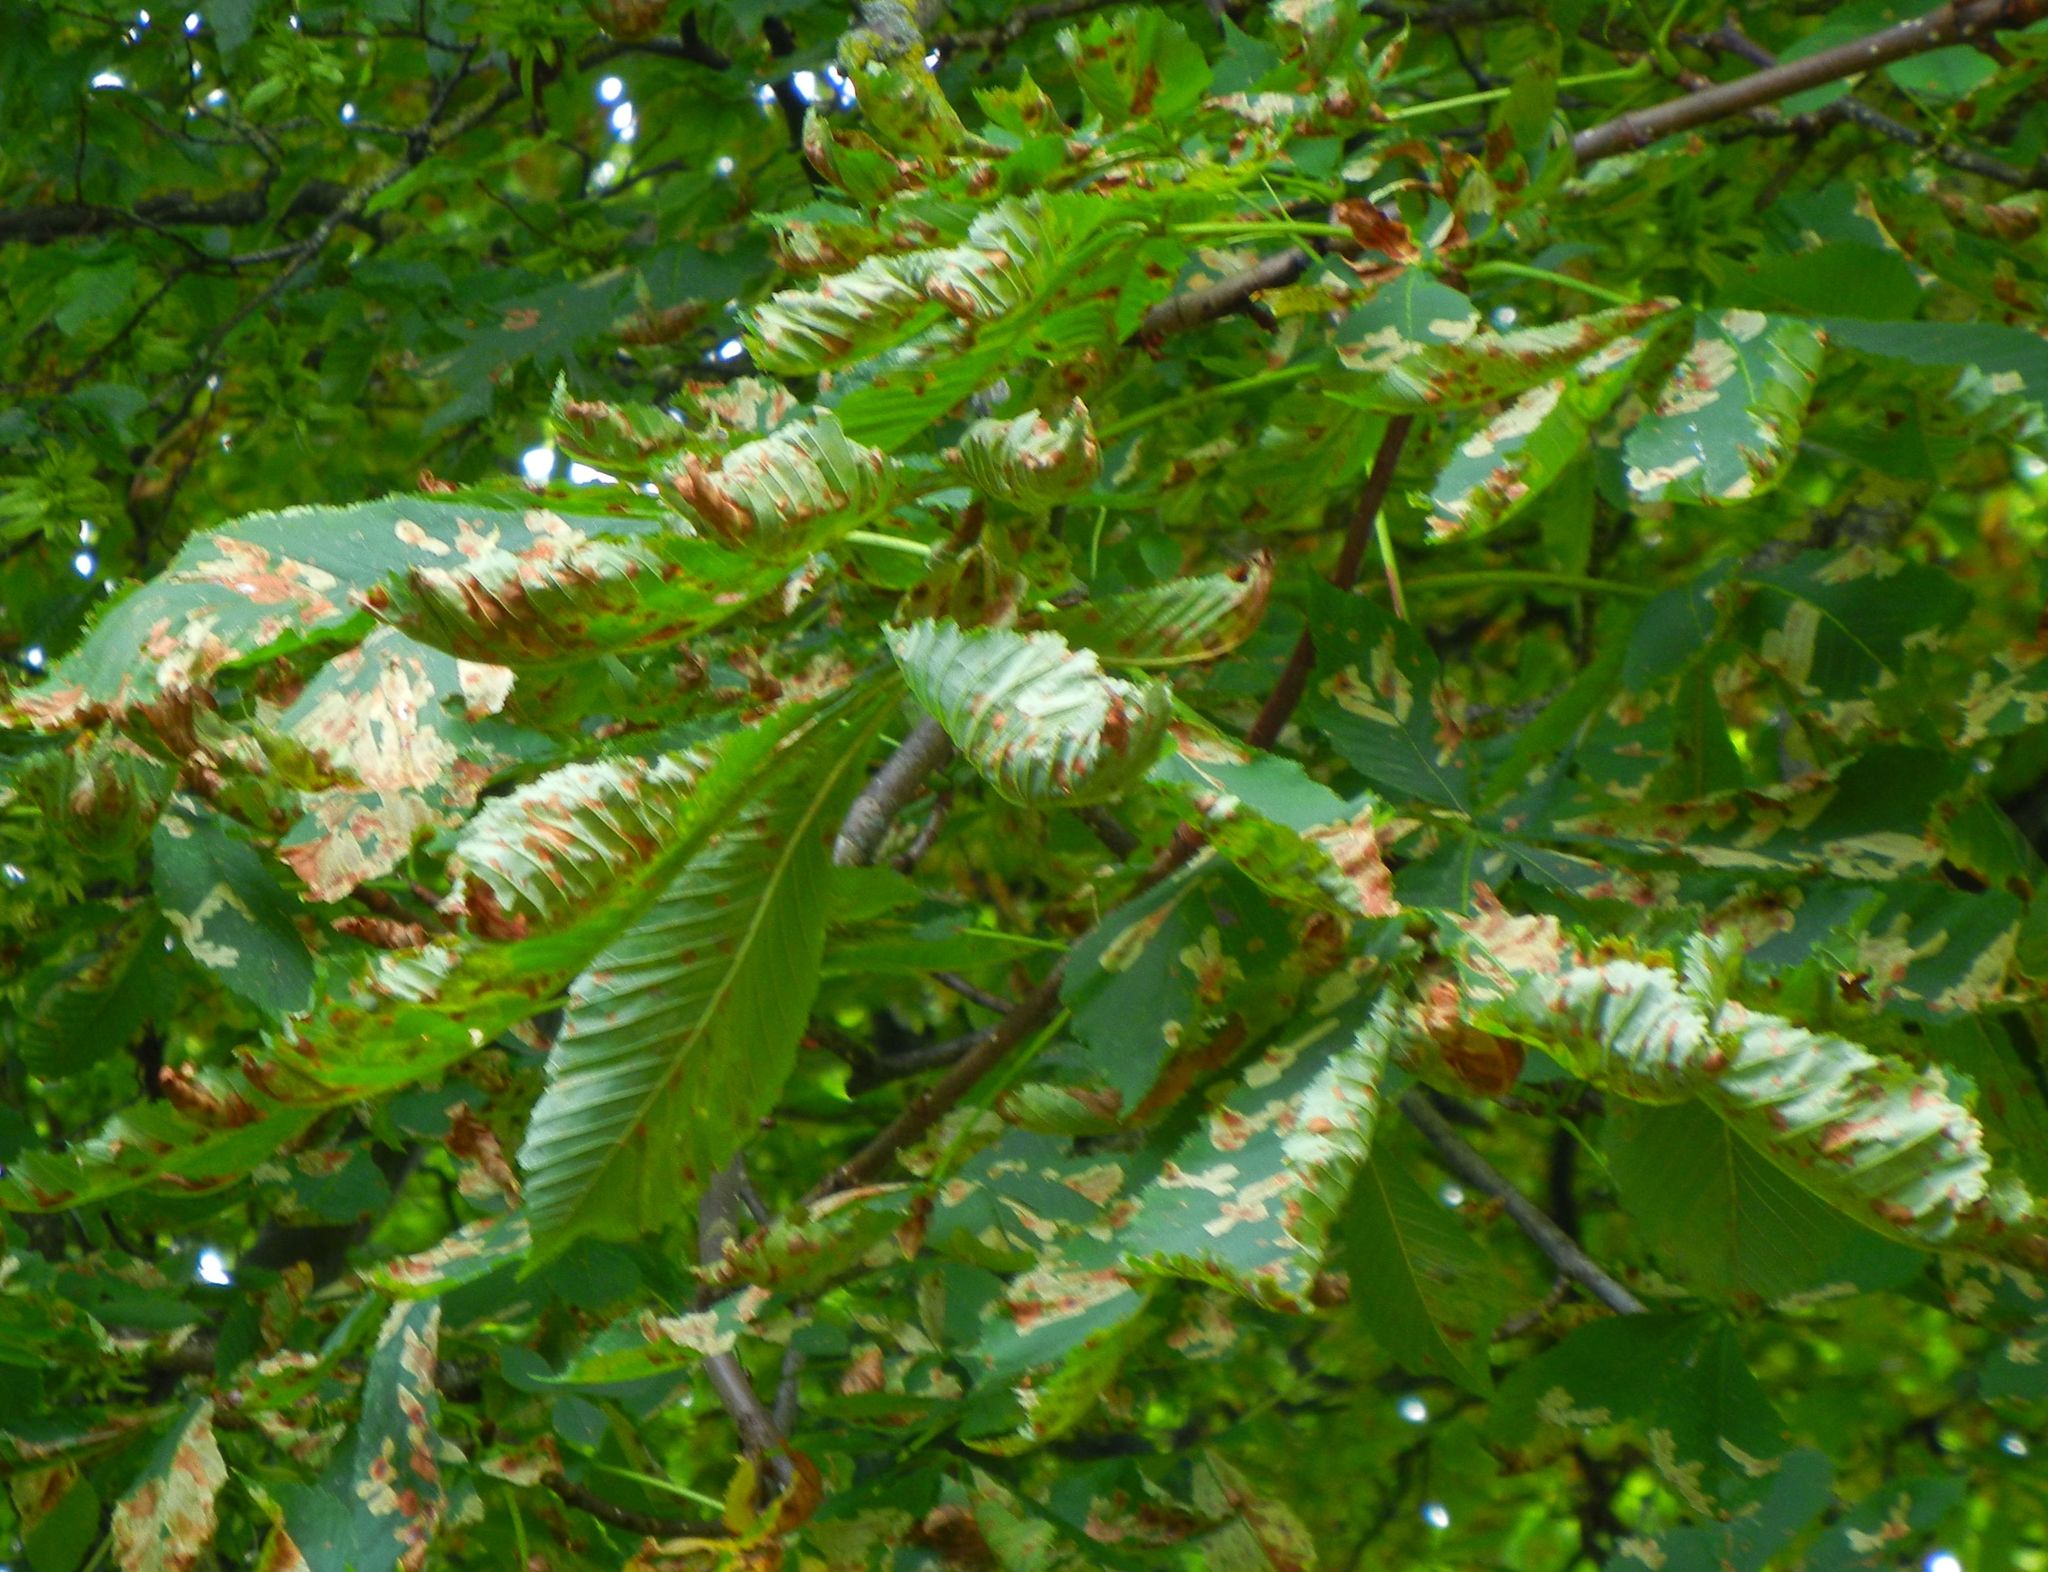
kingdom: Animalia
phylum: Arthropoda
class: Insecta
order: Lepidoptera
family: Gracillariidae
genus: Cameraria
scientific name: Cameraria ohridella
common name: Horse-chestnut leaf-miner
